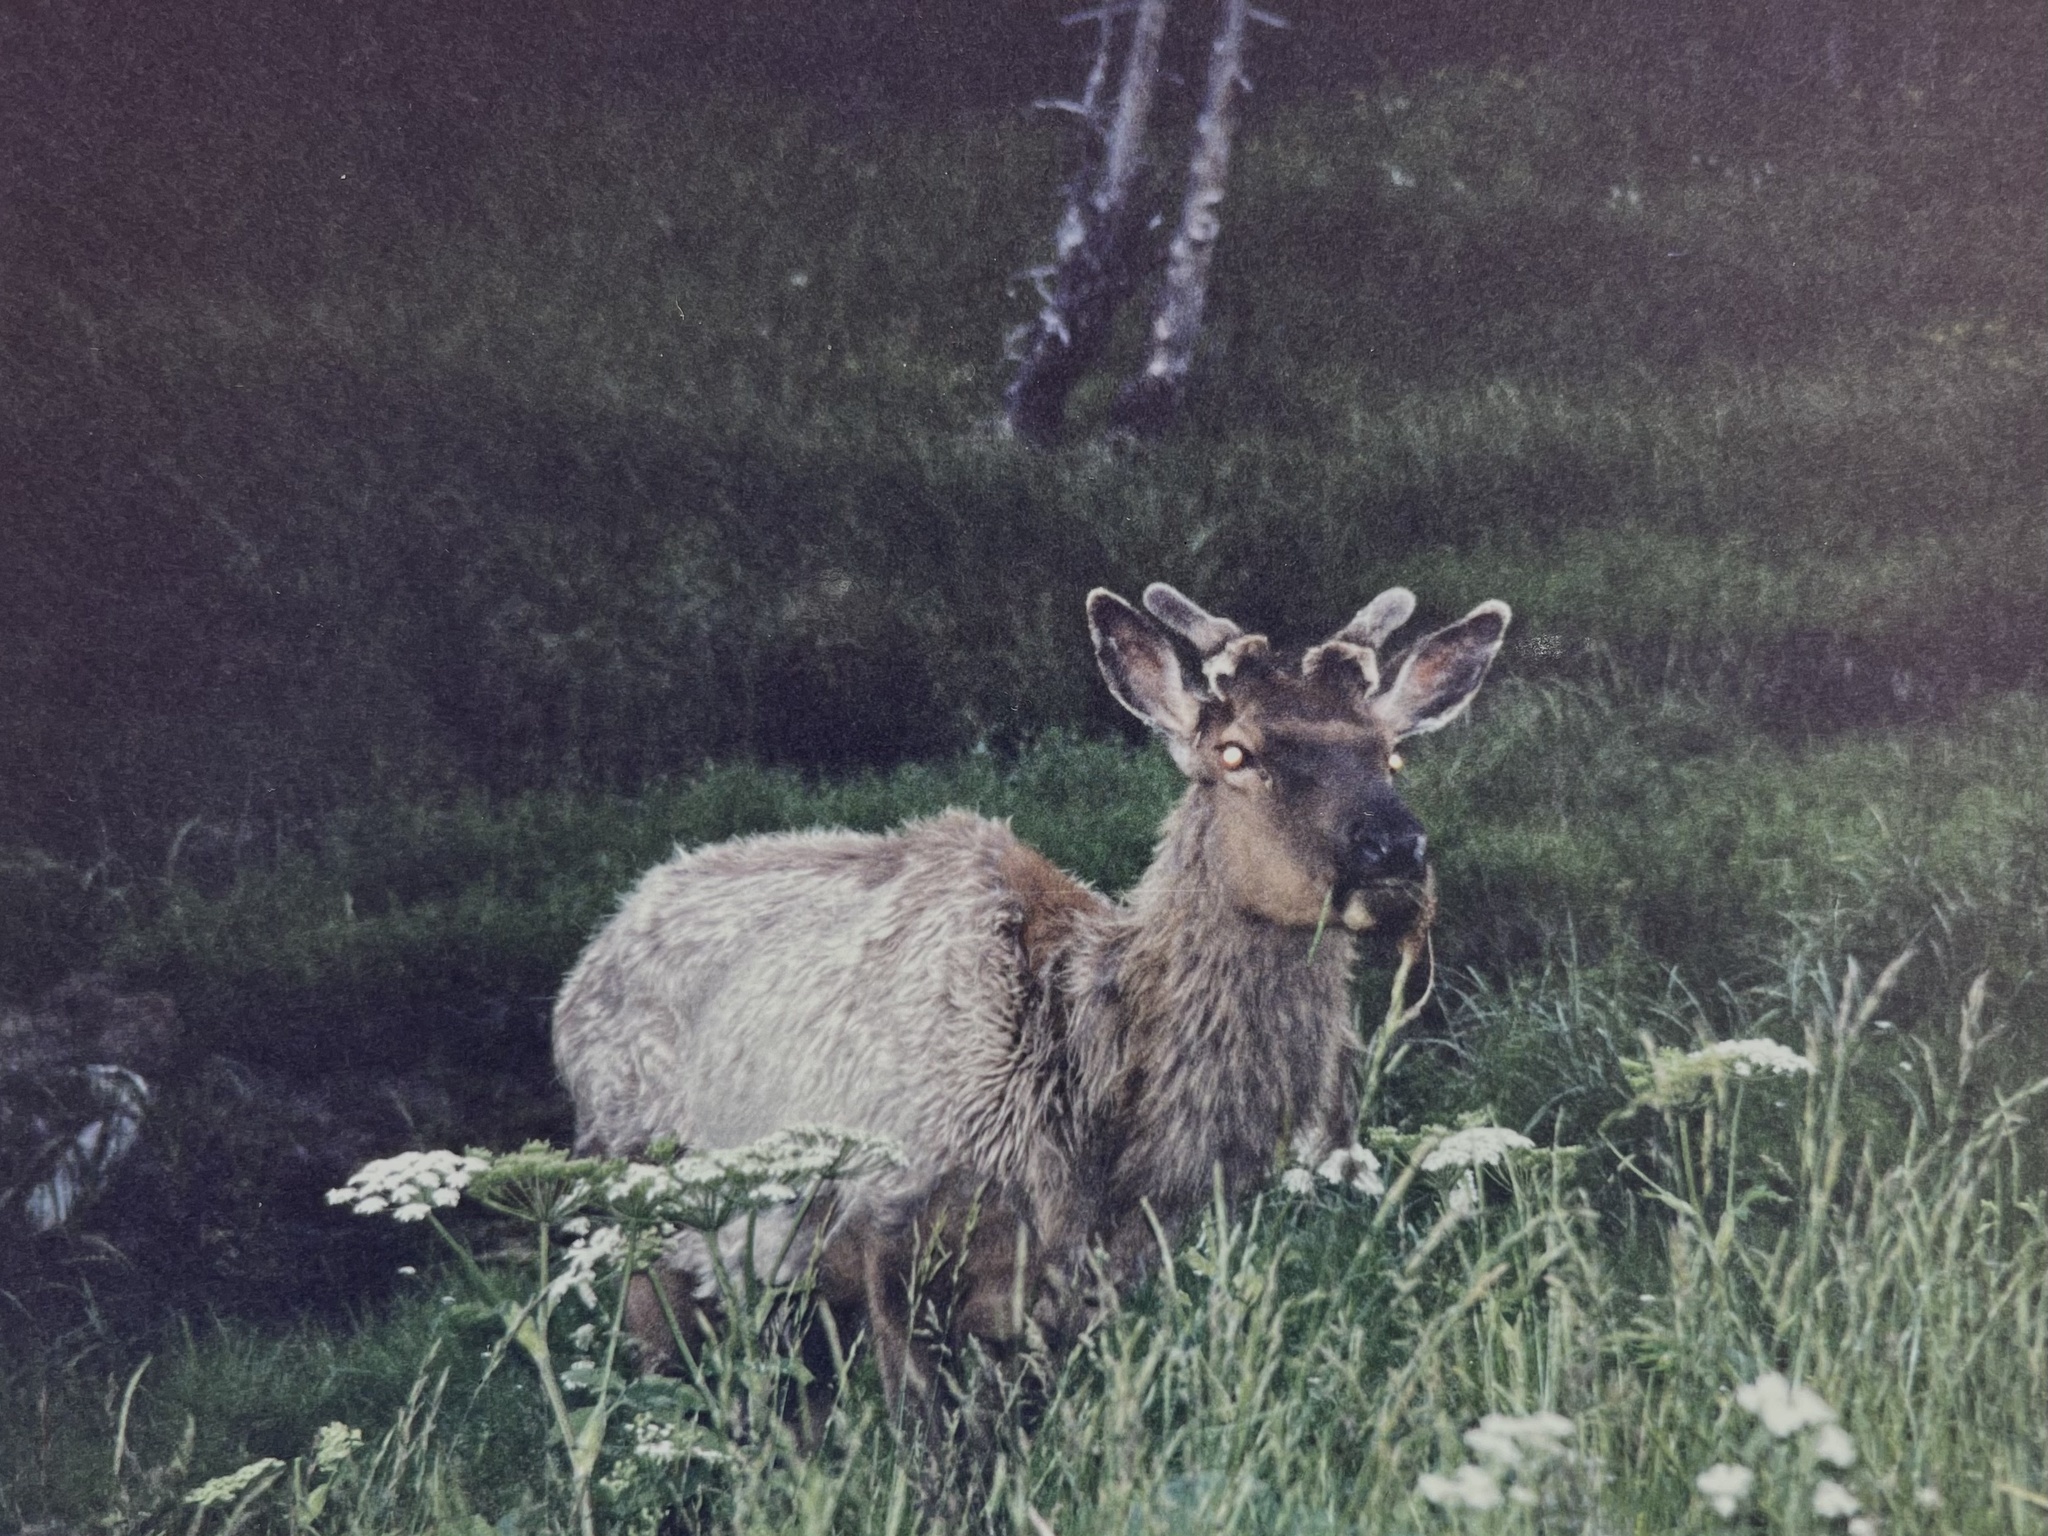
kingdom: Animalia
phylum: Chordata
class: Mammalia
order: Artiodactyla
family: Cervidae
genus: Cervus
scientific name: Cervus elaphus
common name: Red deer
